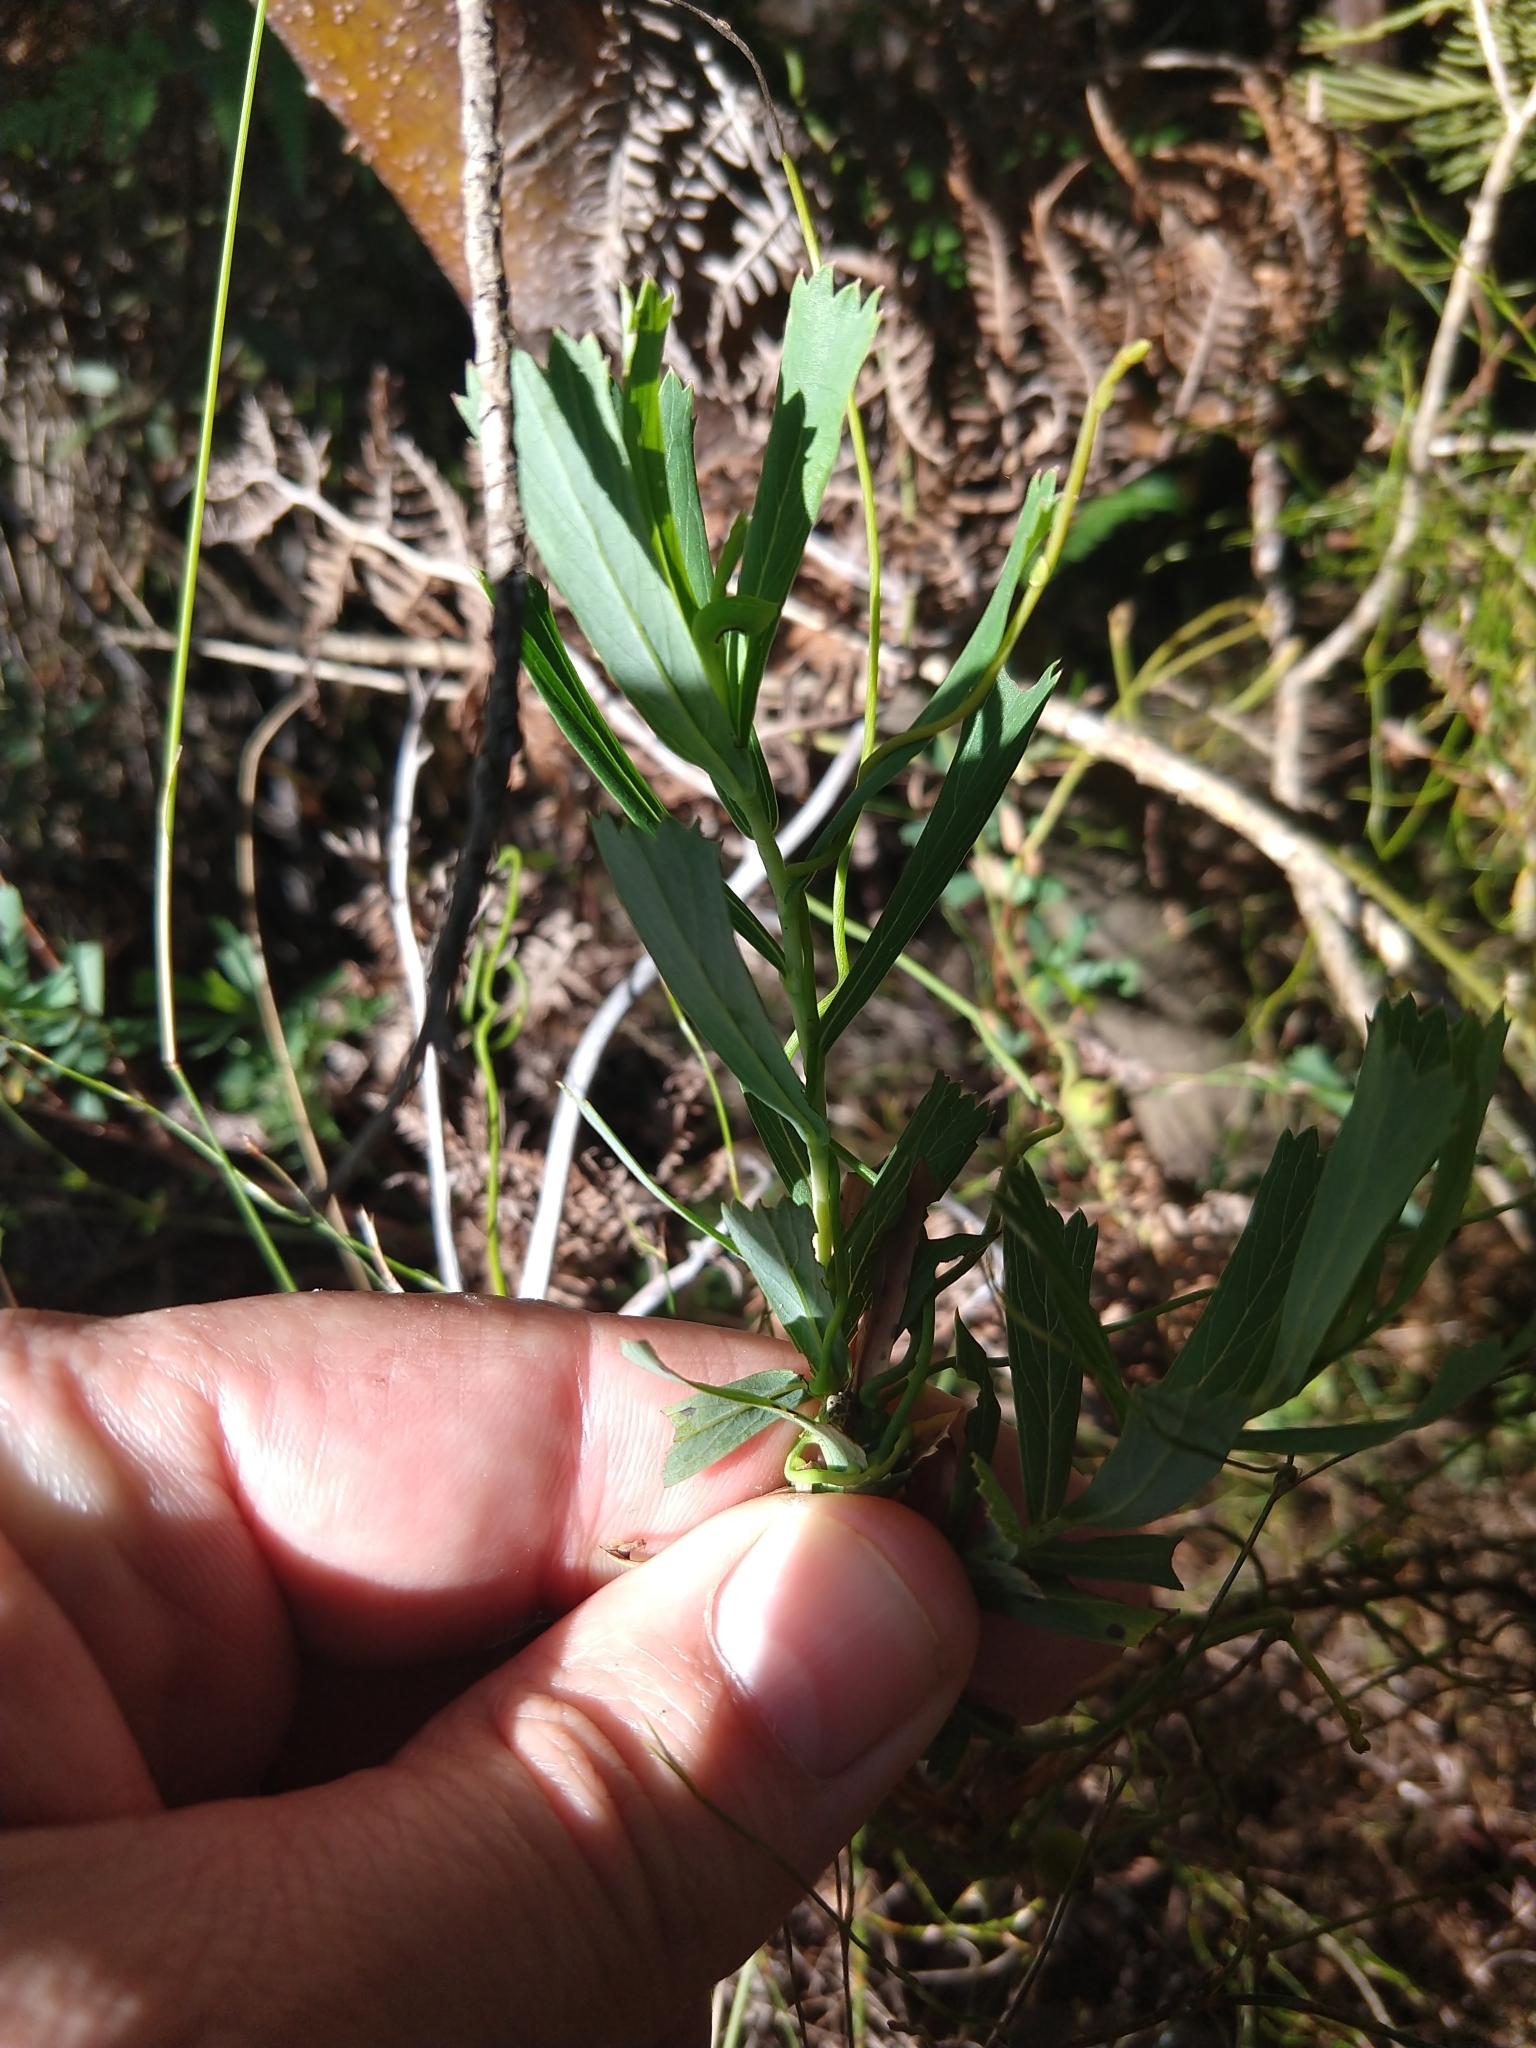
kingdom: Plantae
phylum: Tracheophyta
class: Magnoliopsida
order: Rosales
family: Rosaceae
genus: Cliffortia
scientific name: Cliffortia cuneata
